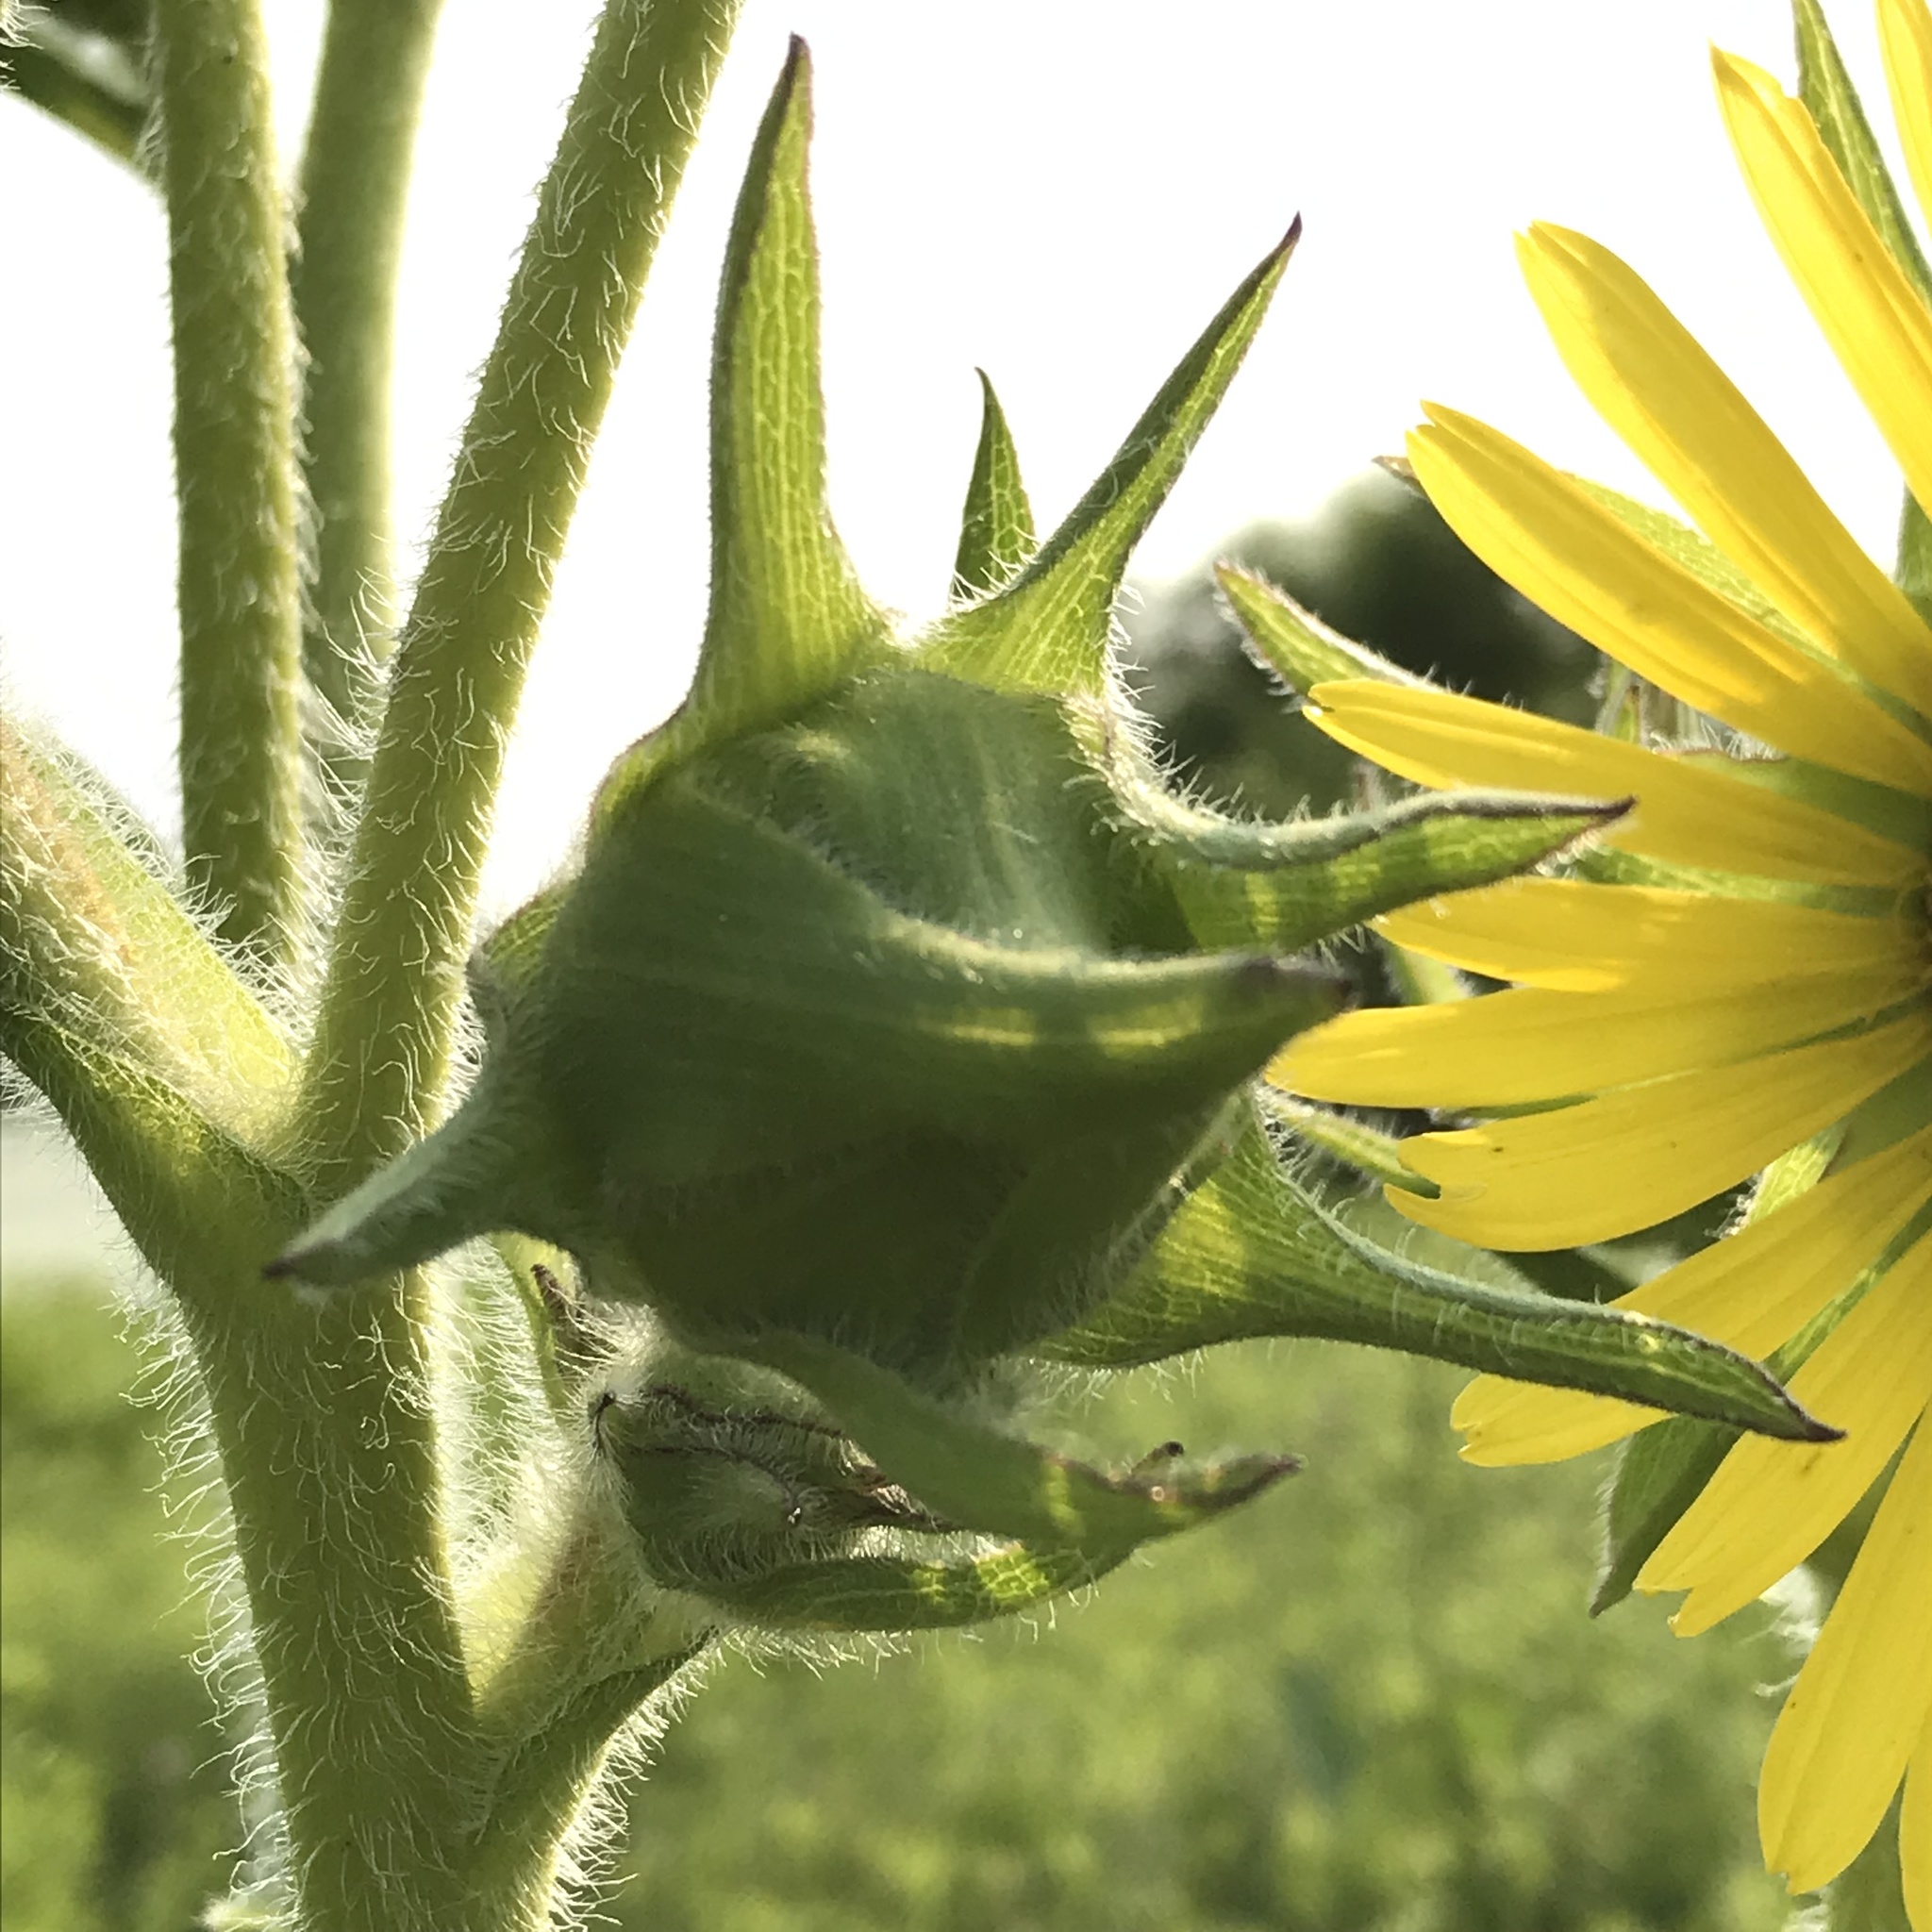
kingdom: Plantae
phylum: Tracheophyta
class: Magnoliopsida
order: Asterales
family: Asteraceae
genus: Silphium
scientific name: Silphium laciniatum
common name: Polarplant
